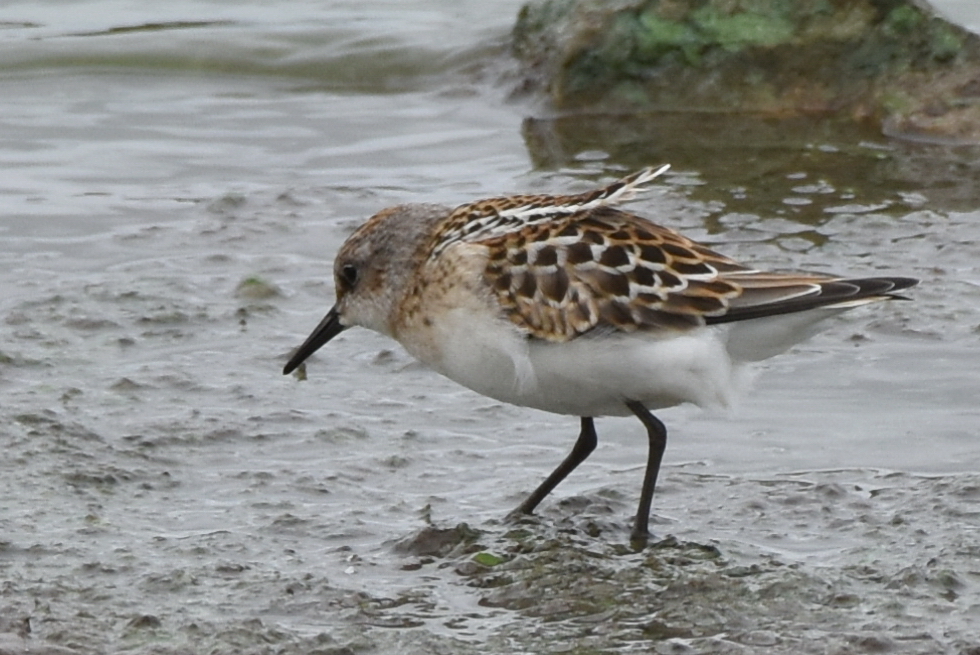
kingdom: Animalia
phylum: Chordata
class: Aves
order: Charadriiformes
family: Scolopacidae
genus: Calidris
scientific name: Calidris minuta
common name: Little stint
